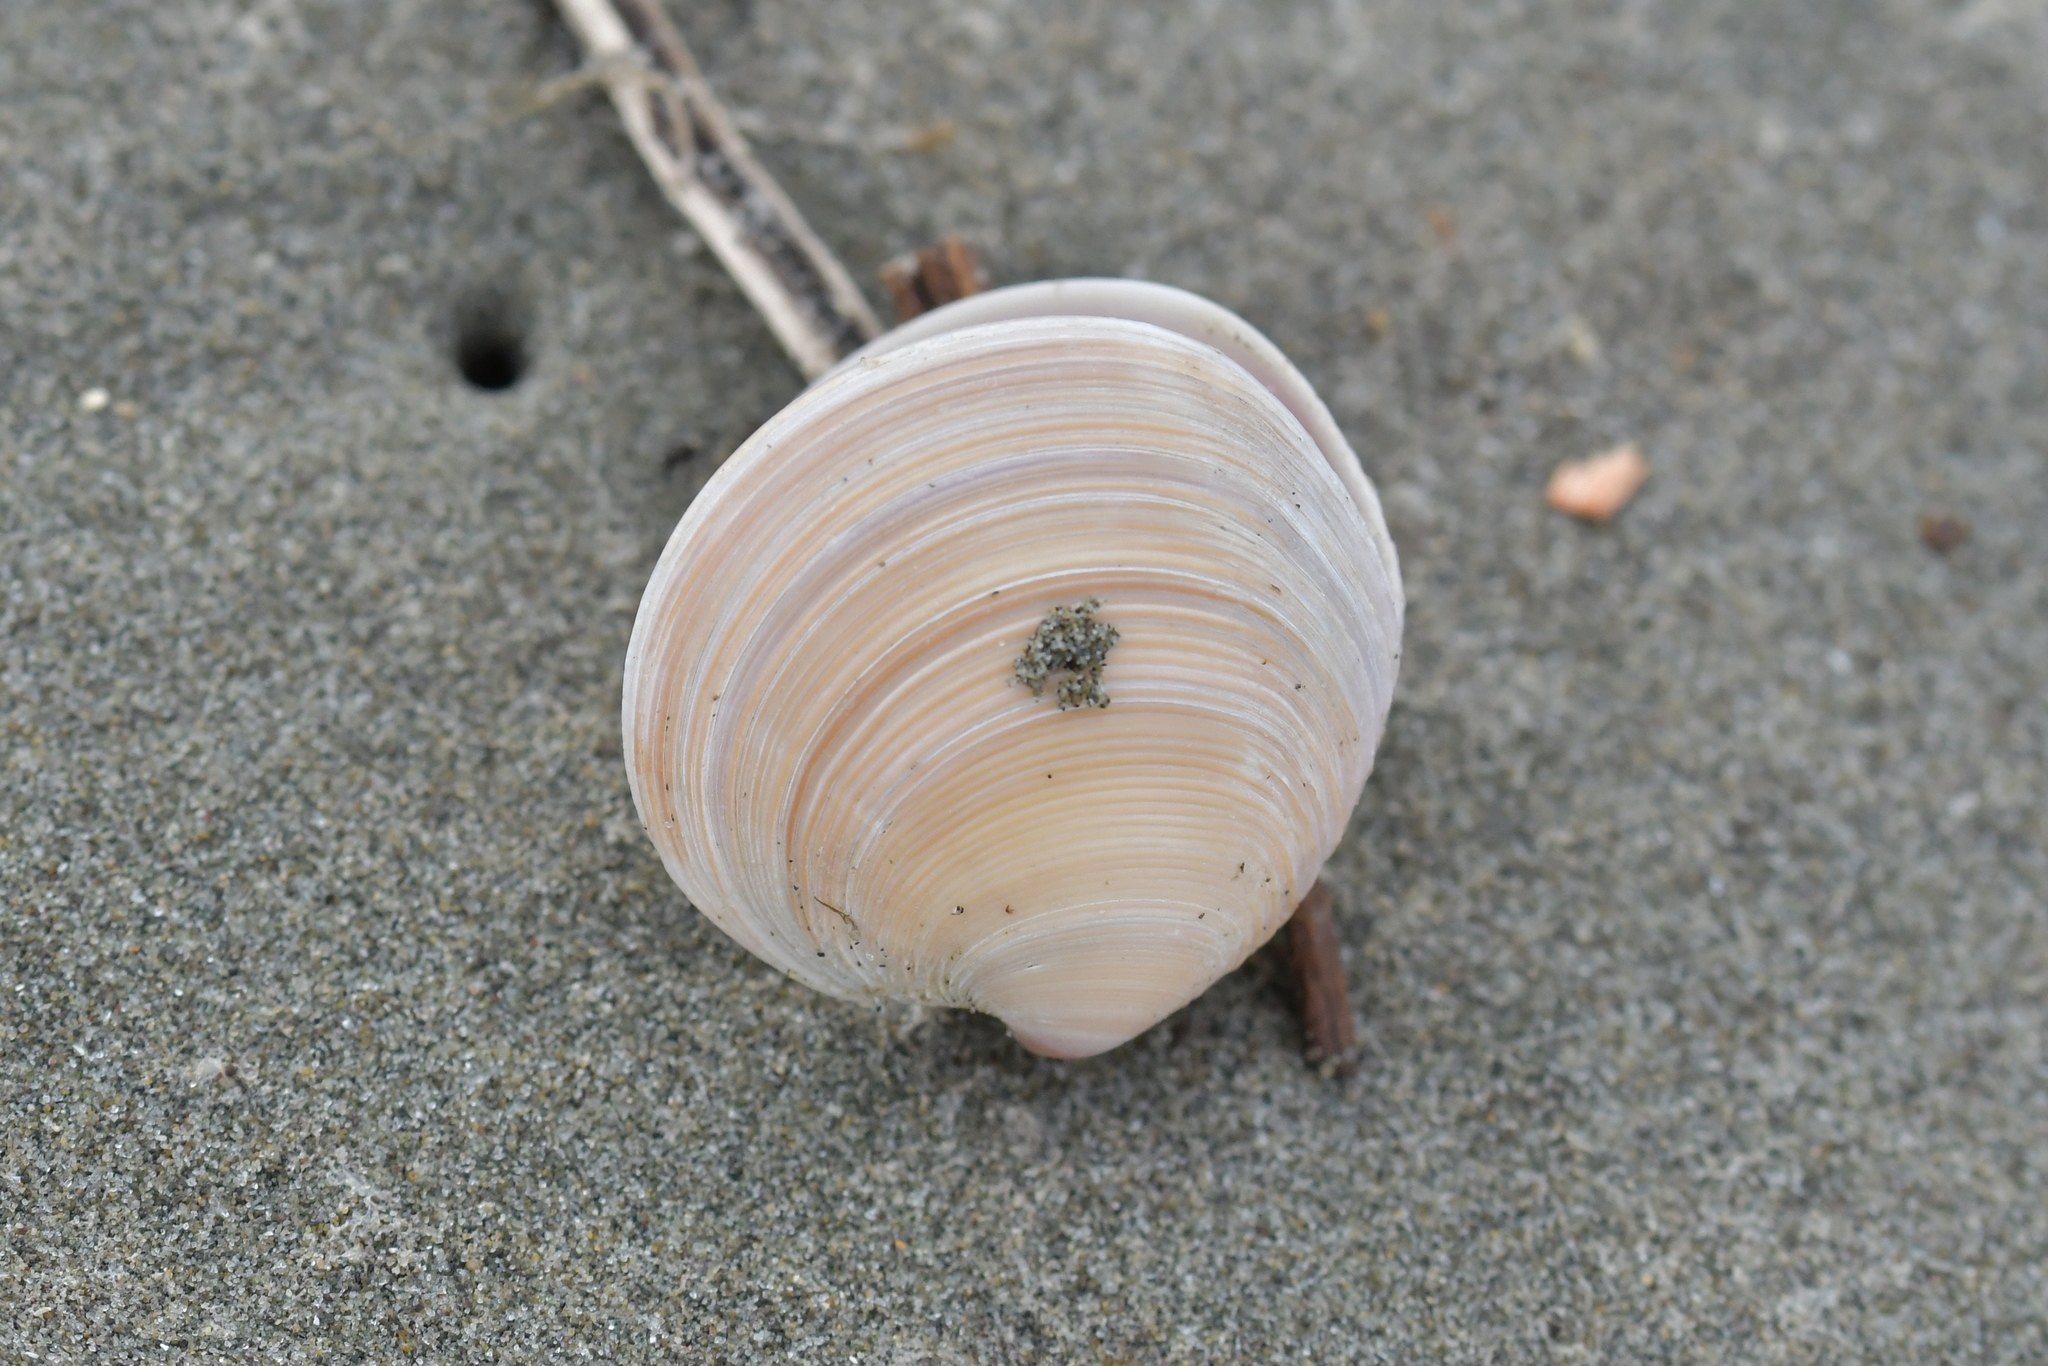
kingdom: Animalia
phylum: Mollusca
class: Bivalvia
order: Venerida
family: Veneridae
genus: Dosinia
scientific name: Dosinia anus
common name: Old-woman dosinia
